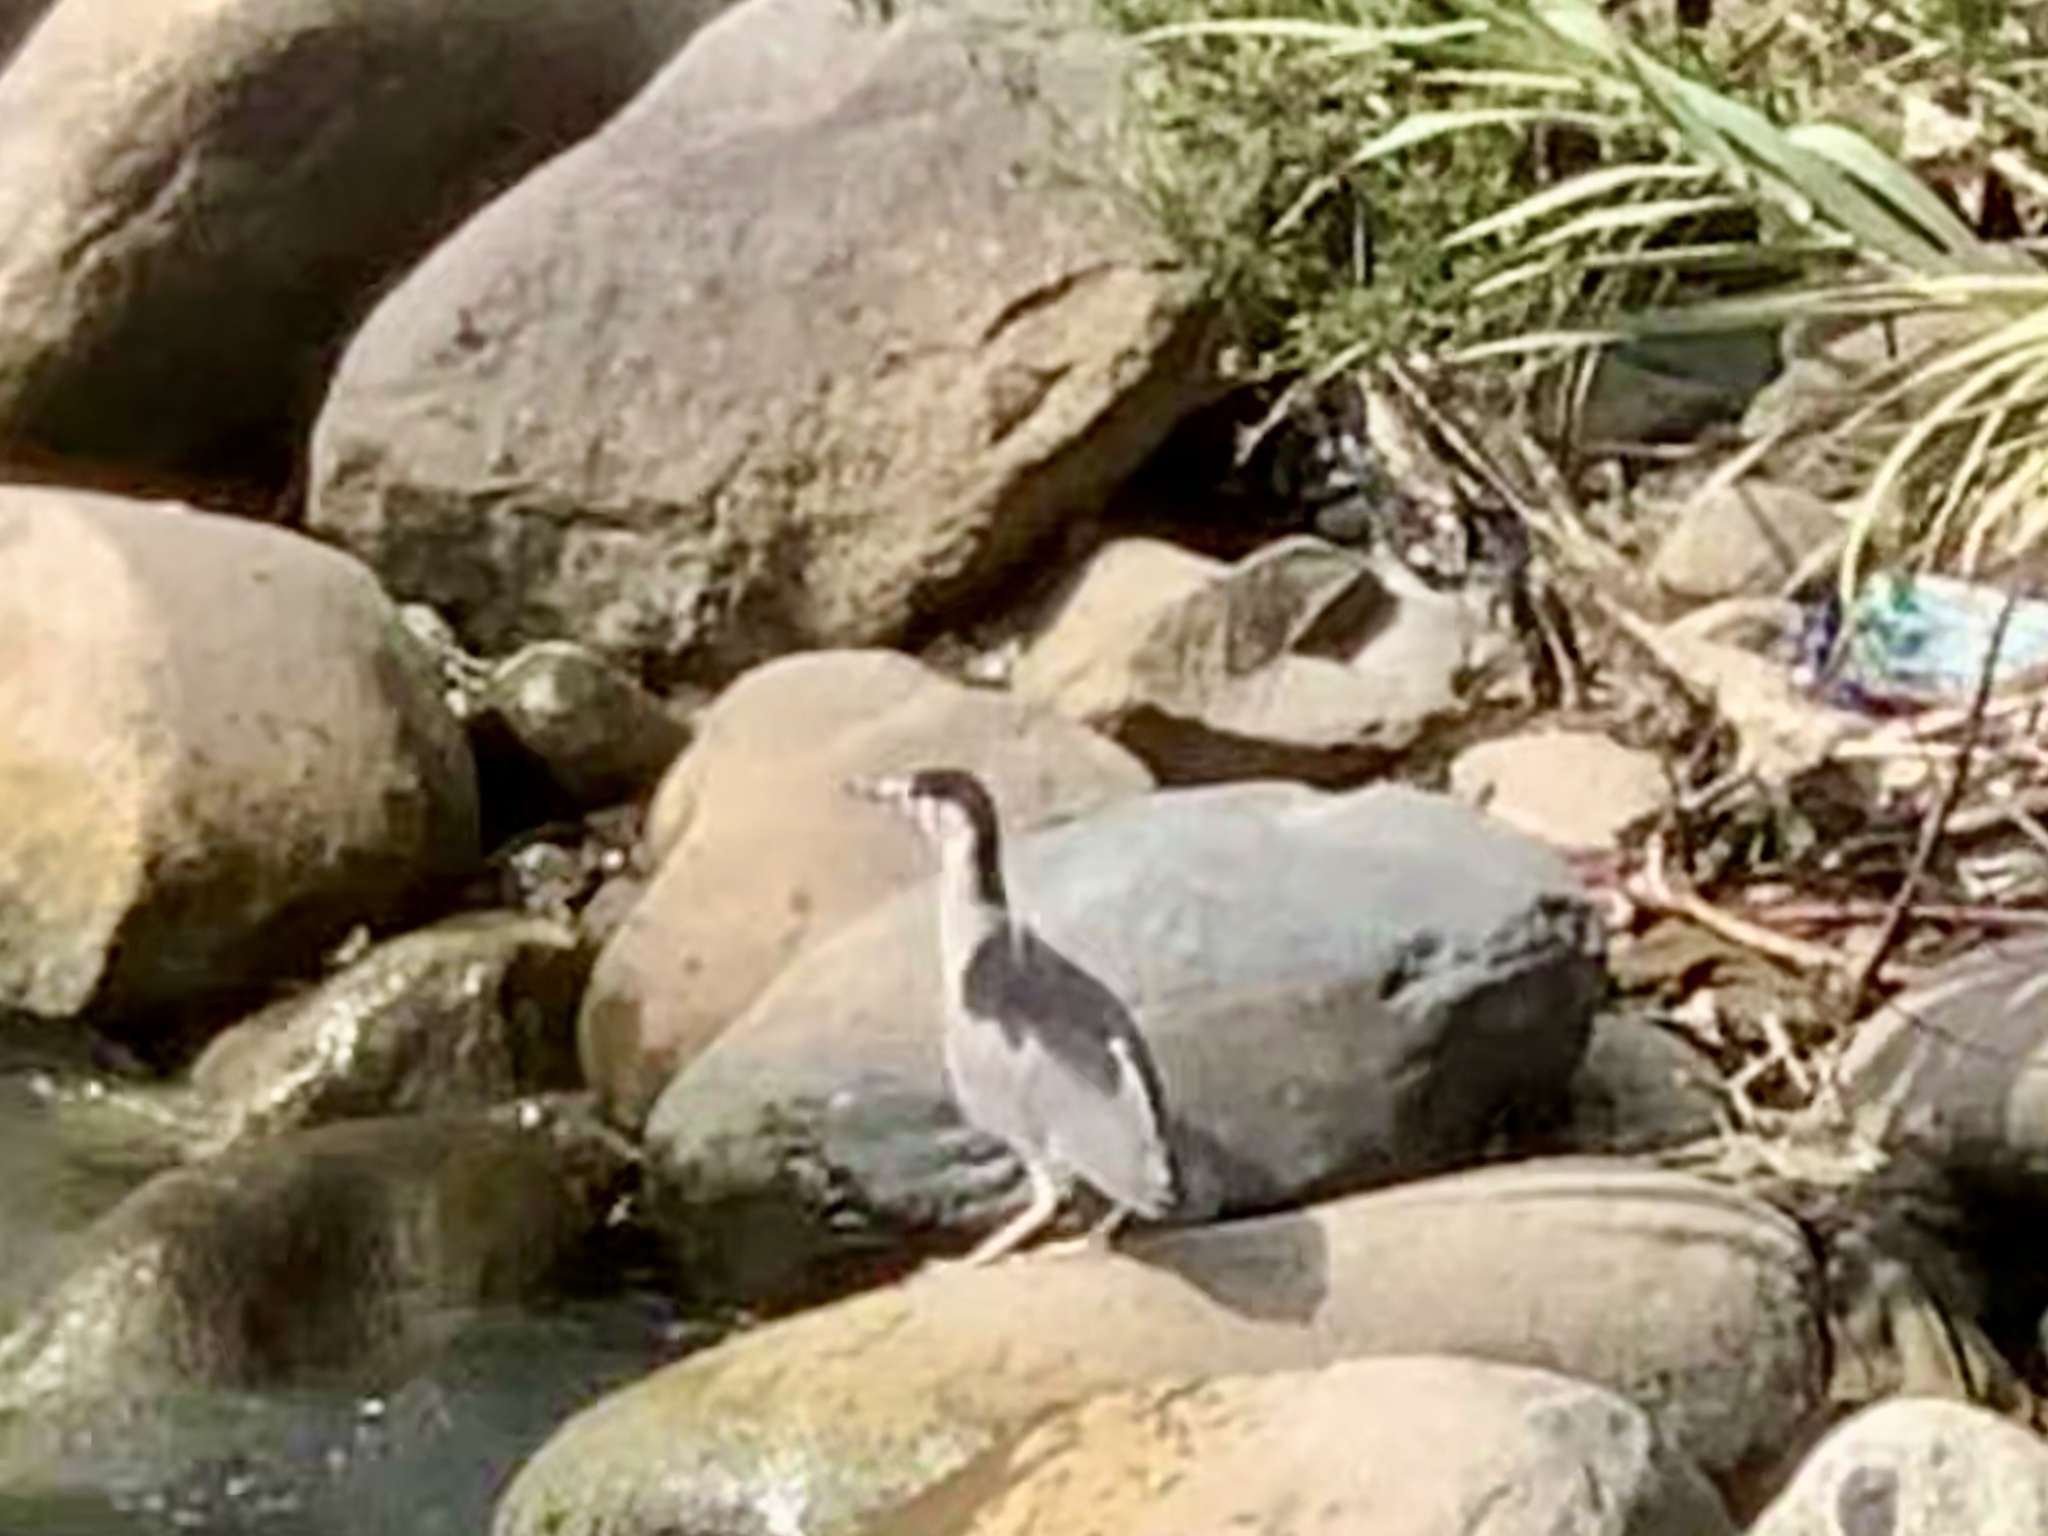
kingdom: Animalia
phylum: Chordata
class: Aves
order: Pelecaniformes
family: Ardeidae
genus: Nycticorax
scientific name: Nycticorax nycticorax
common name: Black-crowned night heron
